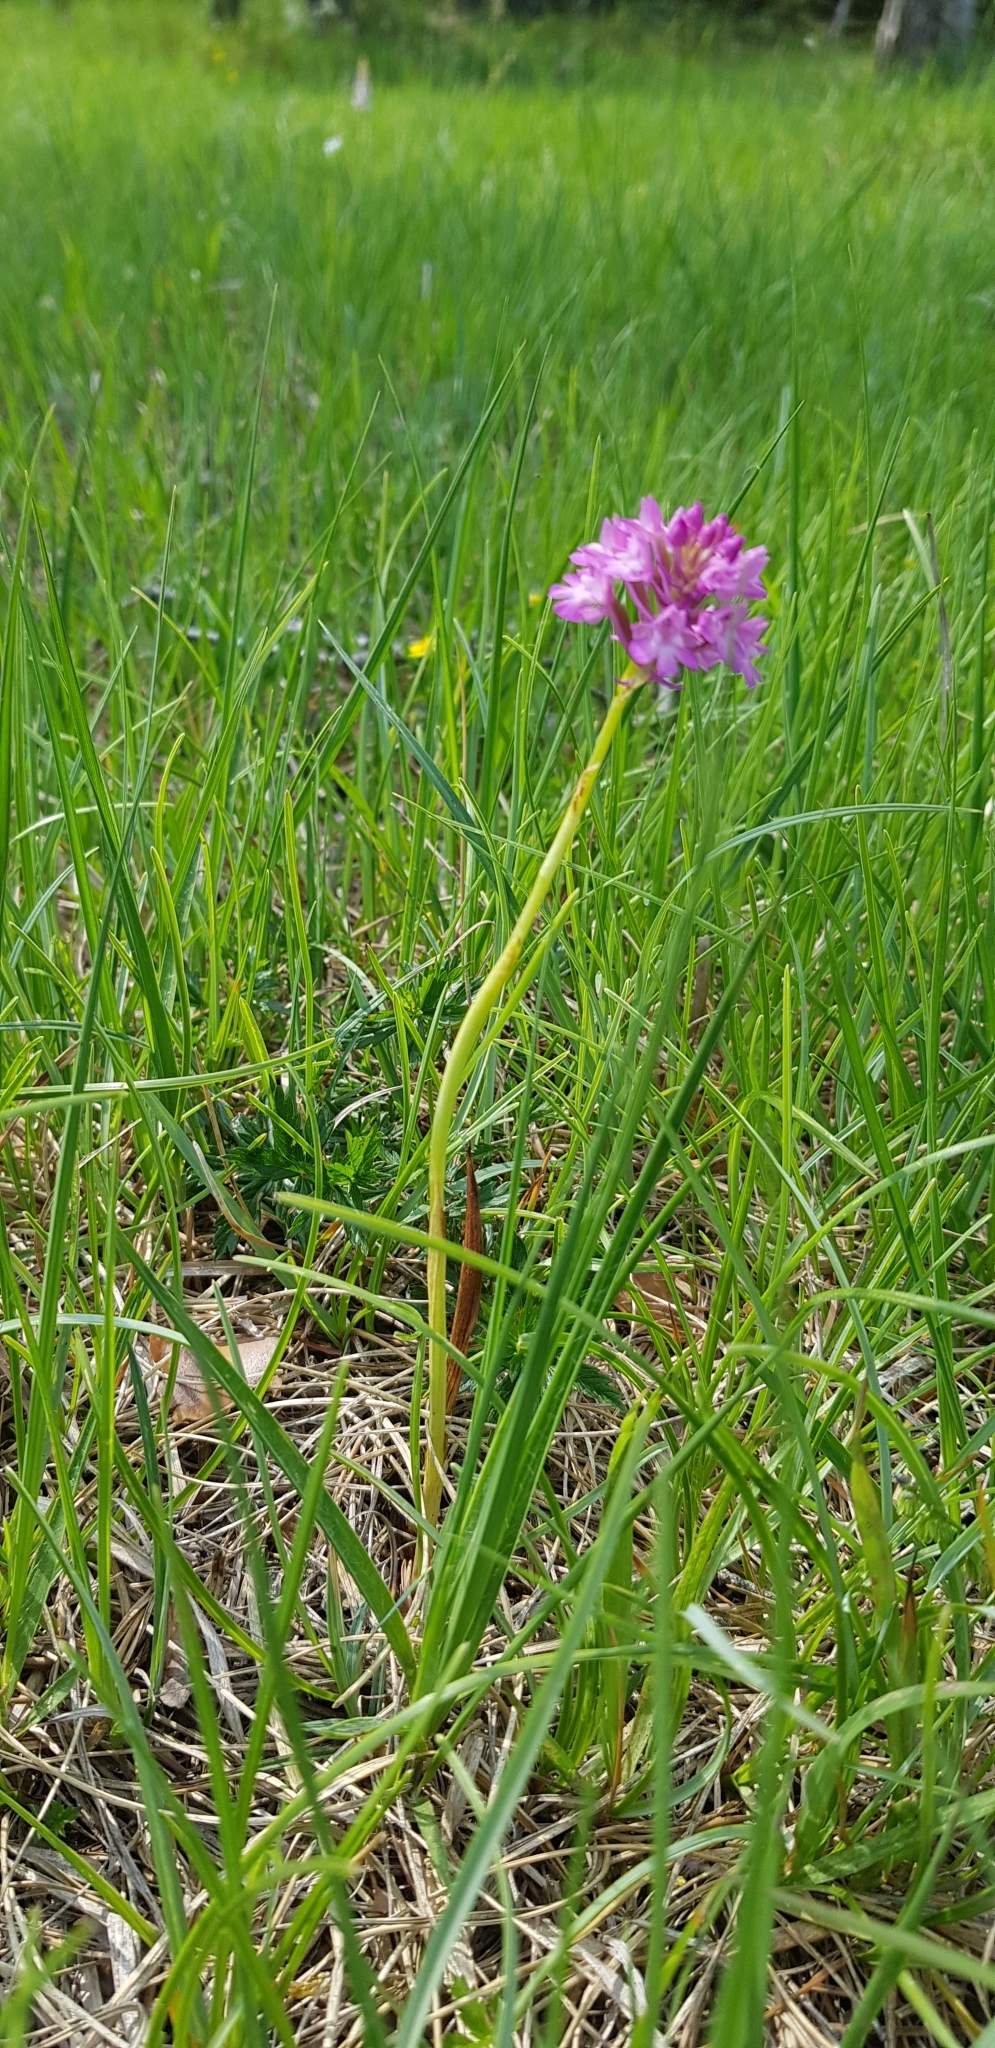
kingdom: Plantae
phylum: Tracheophyta
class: Liliopsida
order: Asparagales
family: Orchidaceae
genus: Anacamptis
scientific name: Anacamptis pyramidalis
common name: Pyramidal orchid
